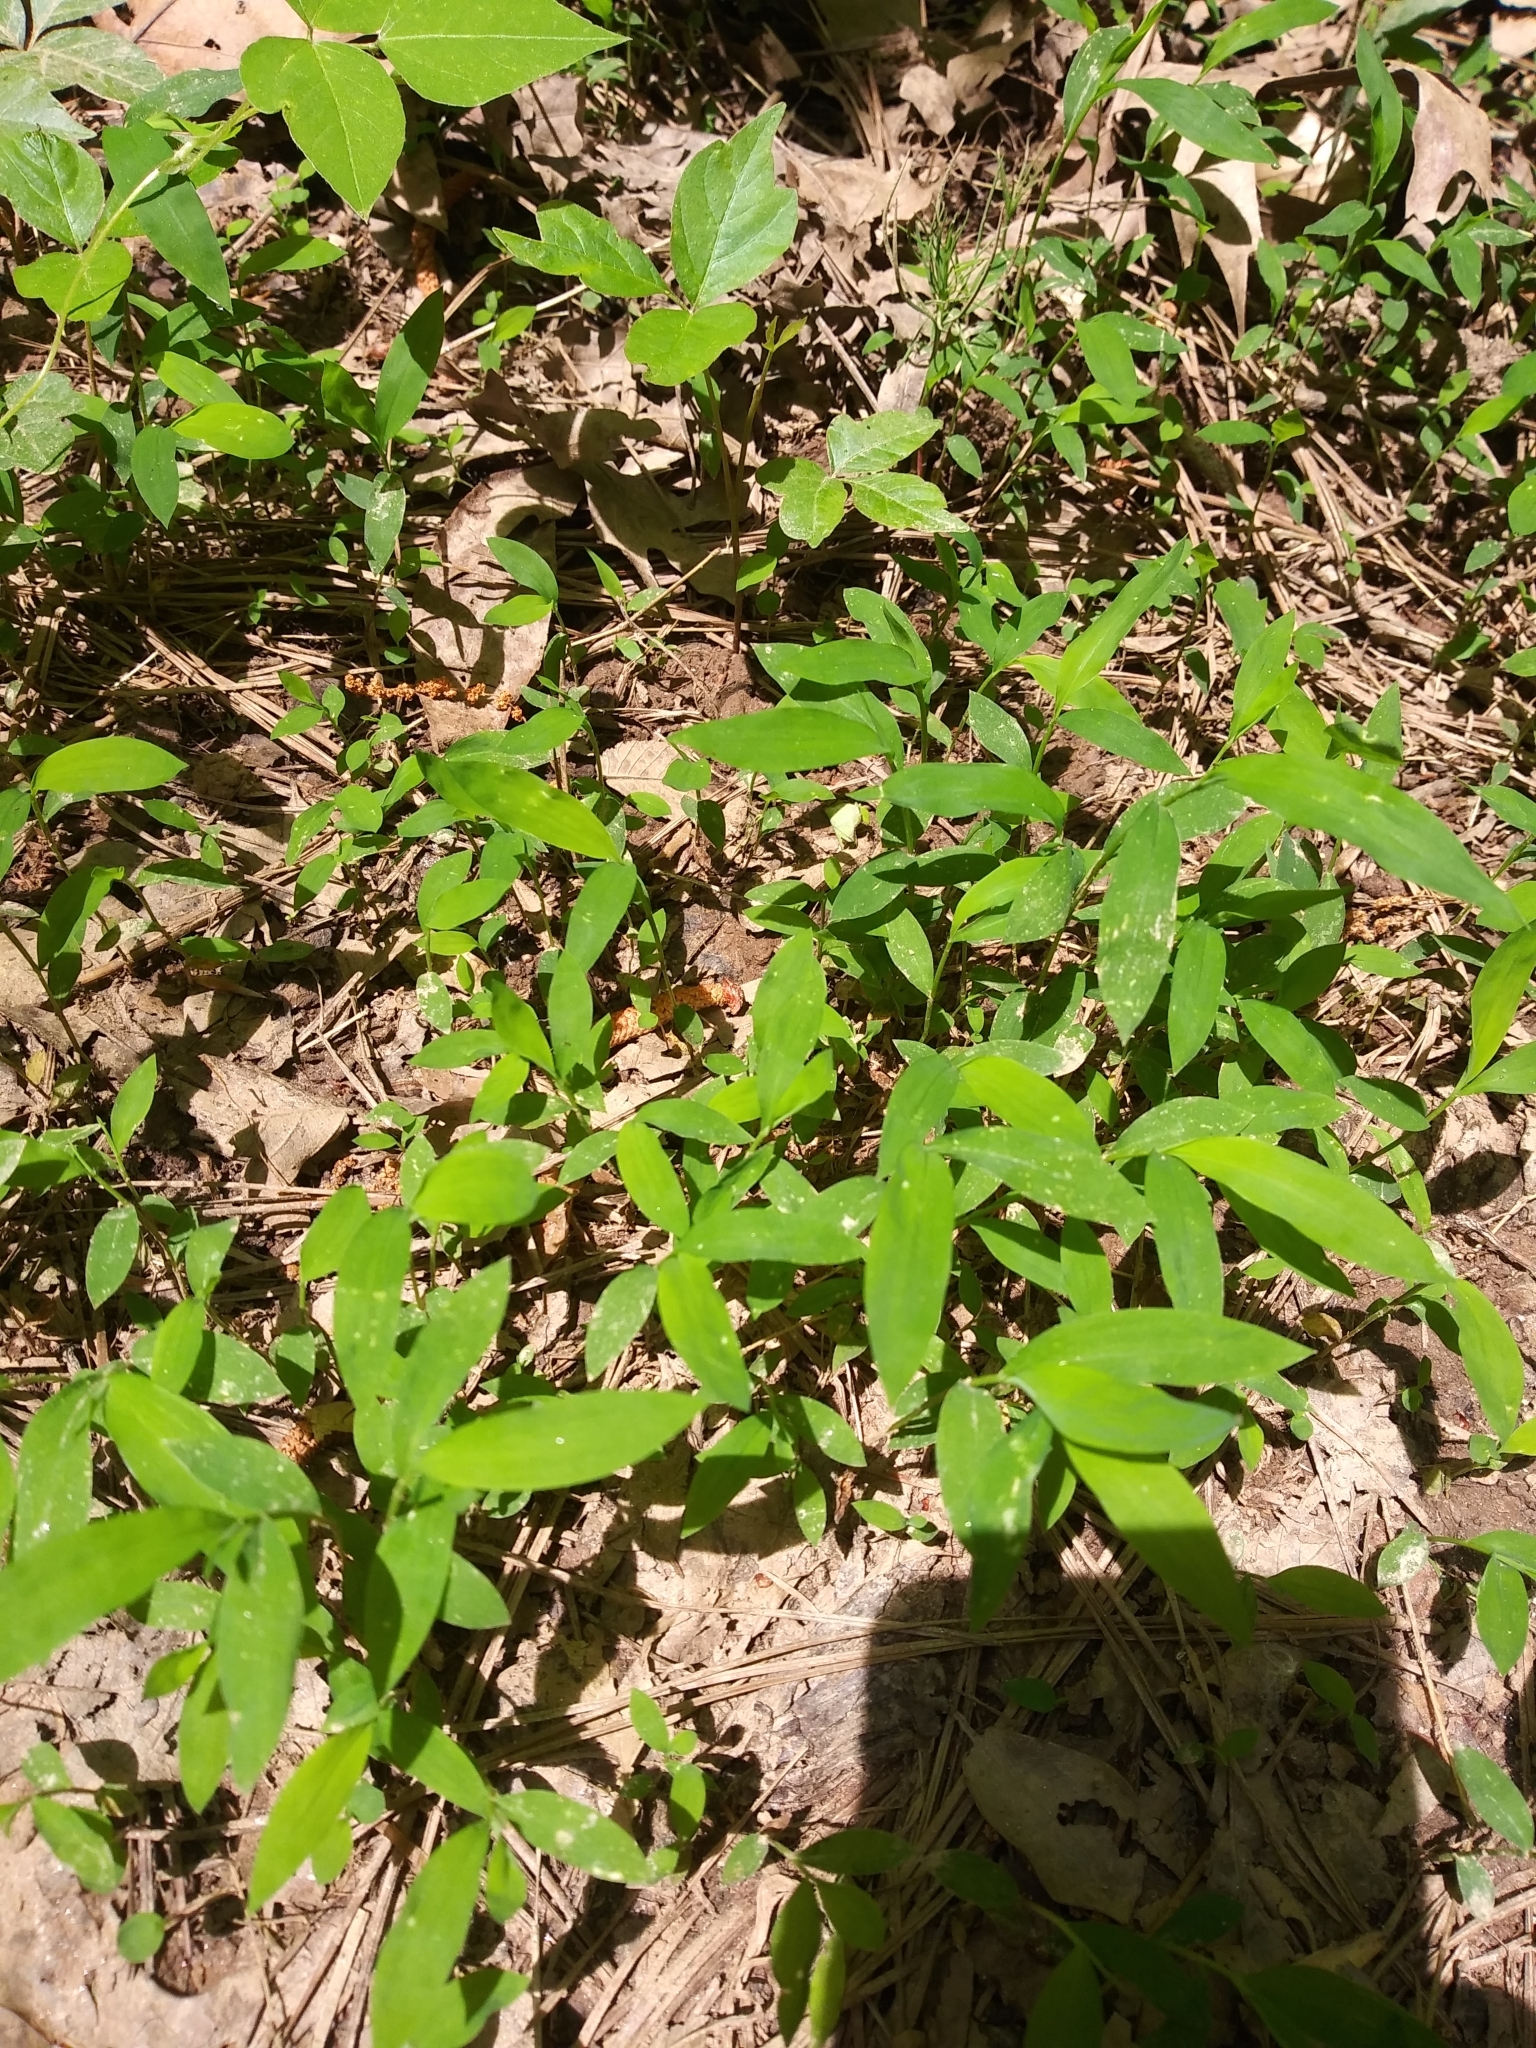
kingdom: Plantae
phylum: Tracheophyta
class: Liliopsida
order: Poales
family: Poaceae
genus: Microstegium
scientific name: Microstegium vimineum
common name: Japanese stiltgrass
